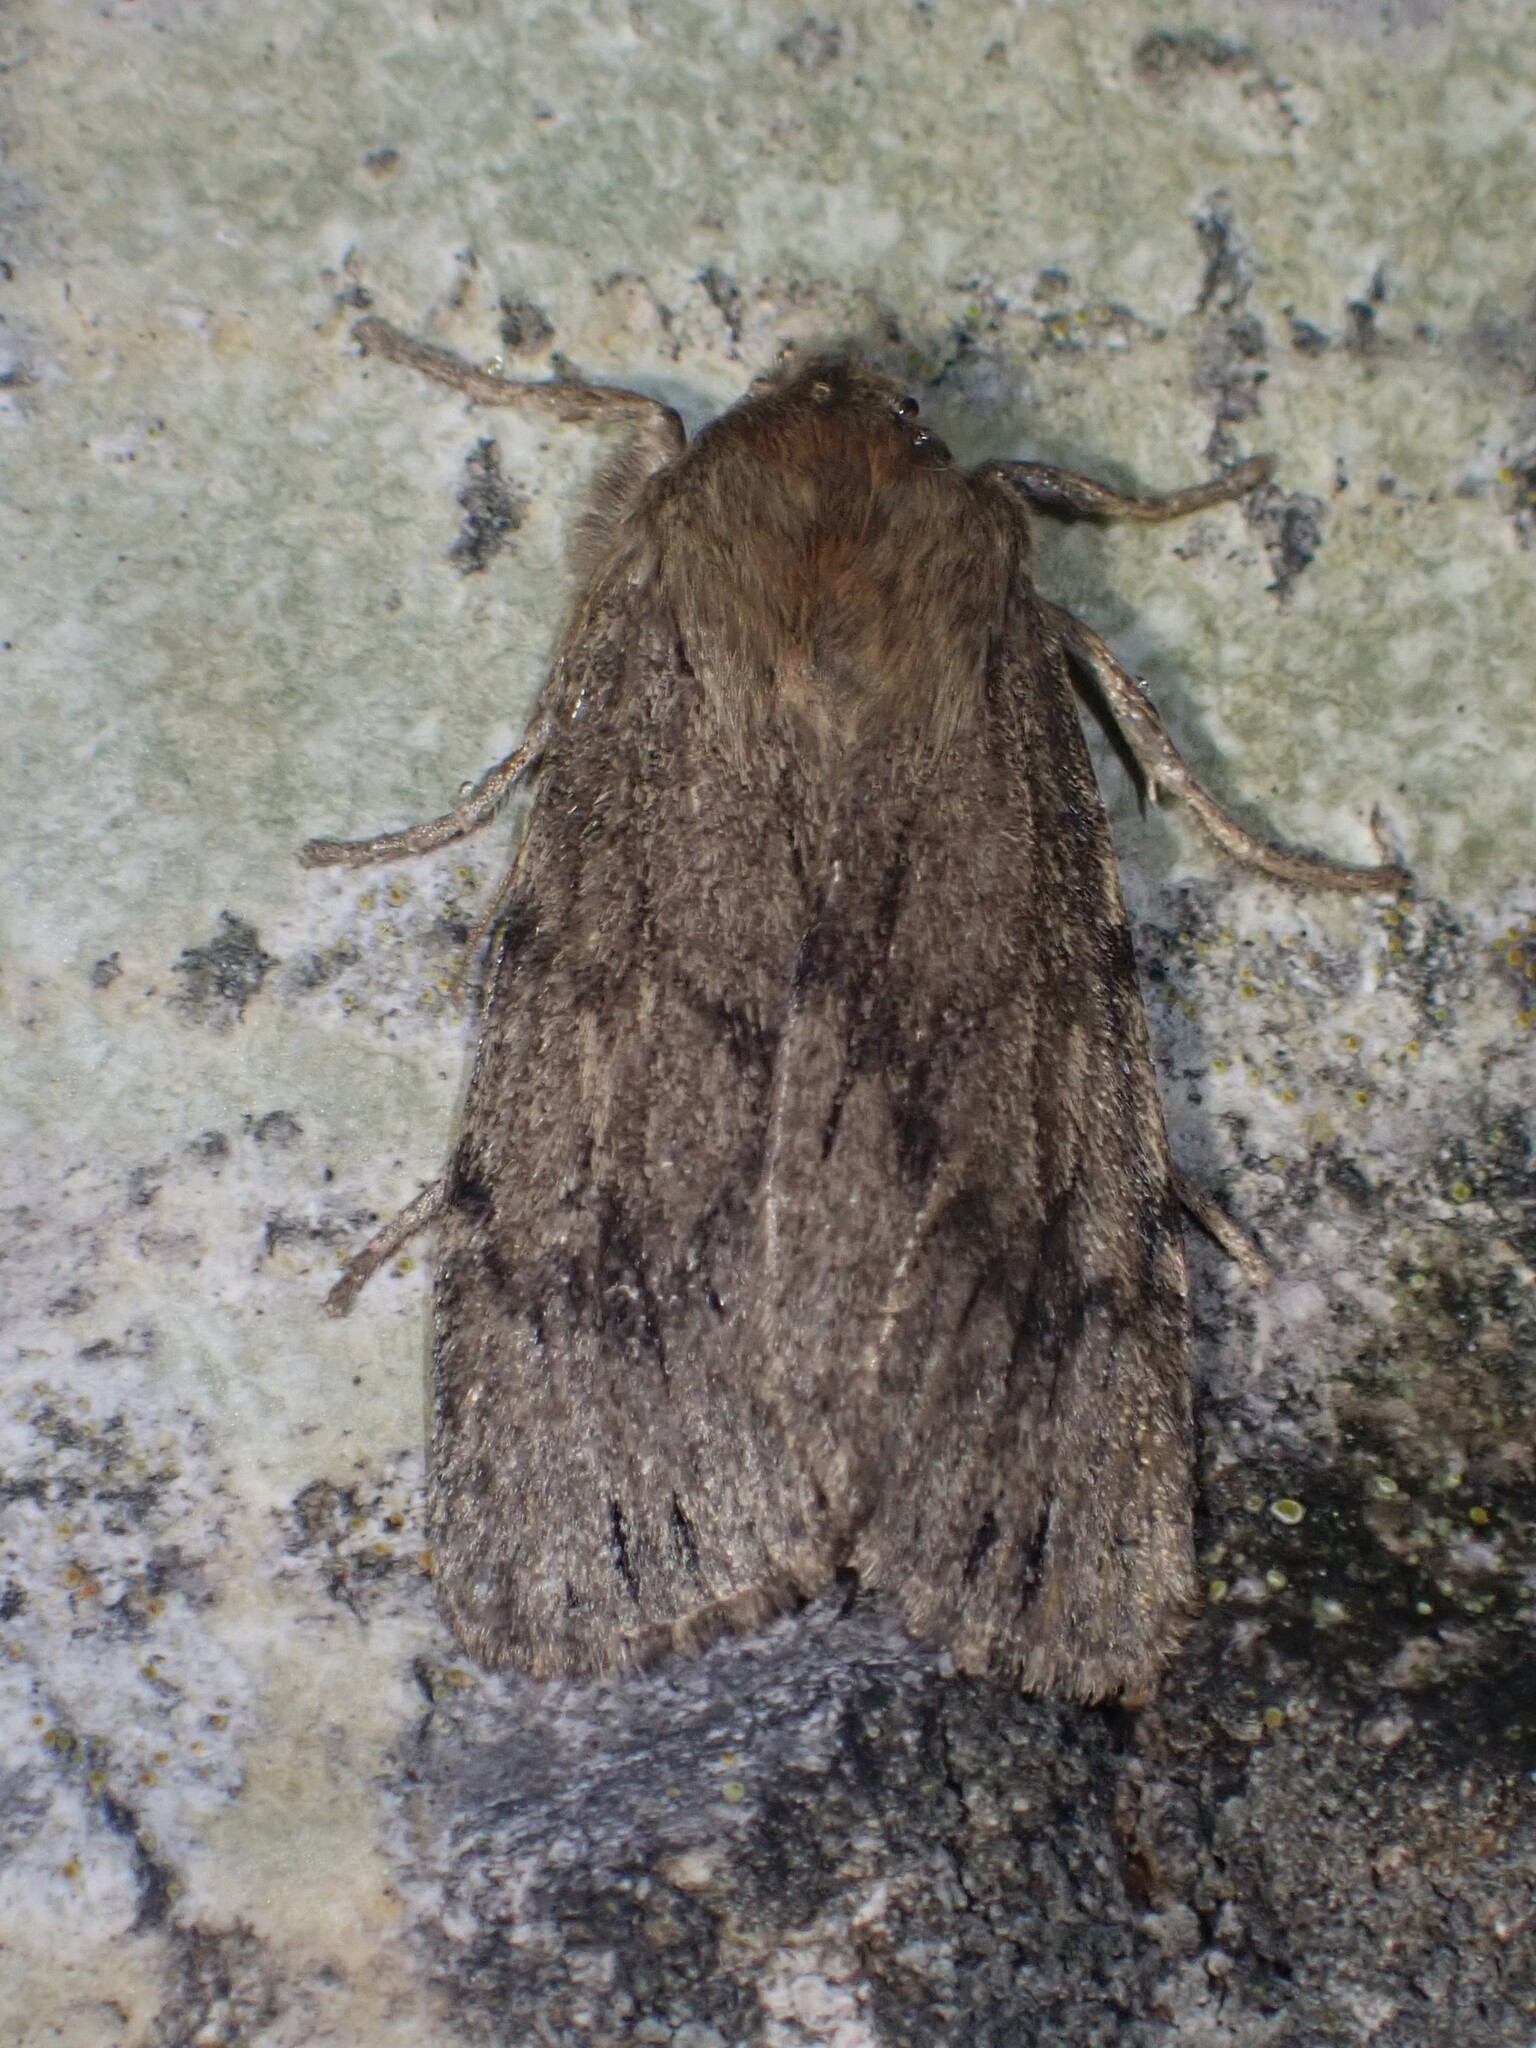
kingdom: Animalia
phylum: Arthropoda
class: Insecta
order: Lepidoptera
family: Noctuidae
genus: Ufeus
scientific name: Ufeus satyricus
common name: Brown satyr moth
